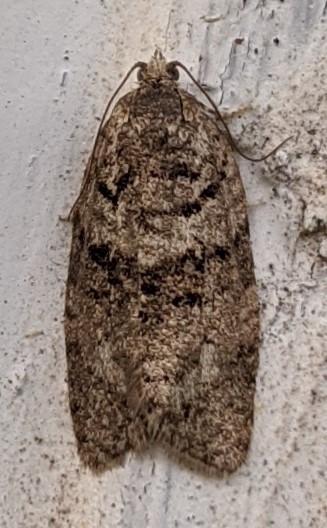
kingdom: Animalia
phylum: Arthropoda
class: Insecta
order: Lepidoptera
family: Tortricidae
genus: Syndemis
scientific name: Syndemis afflictana
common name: Gray leafroller moth
